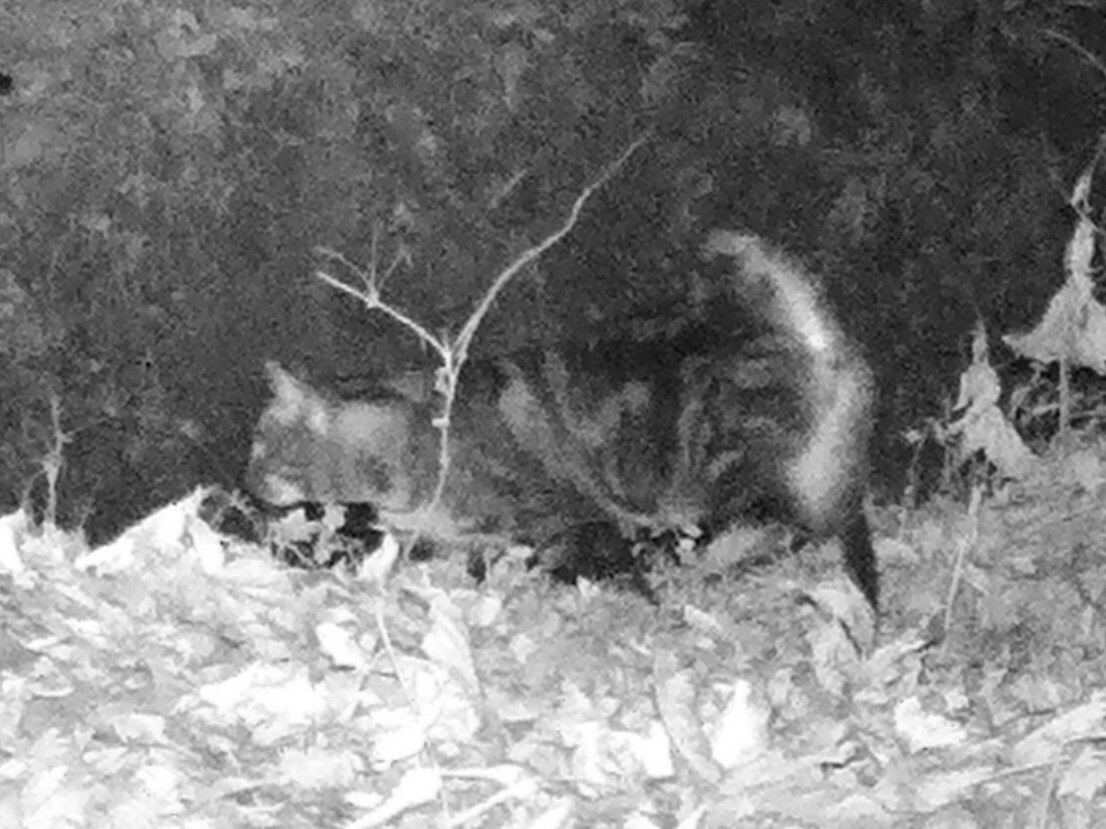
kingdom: Animalia
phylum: Chordata
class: Mammalia
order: Carnivora
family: Felidae
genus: Felis
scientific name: Felis catus
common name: Domestic cat
